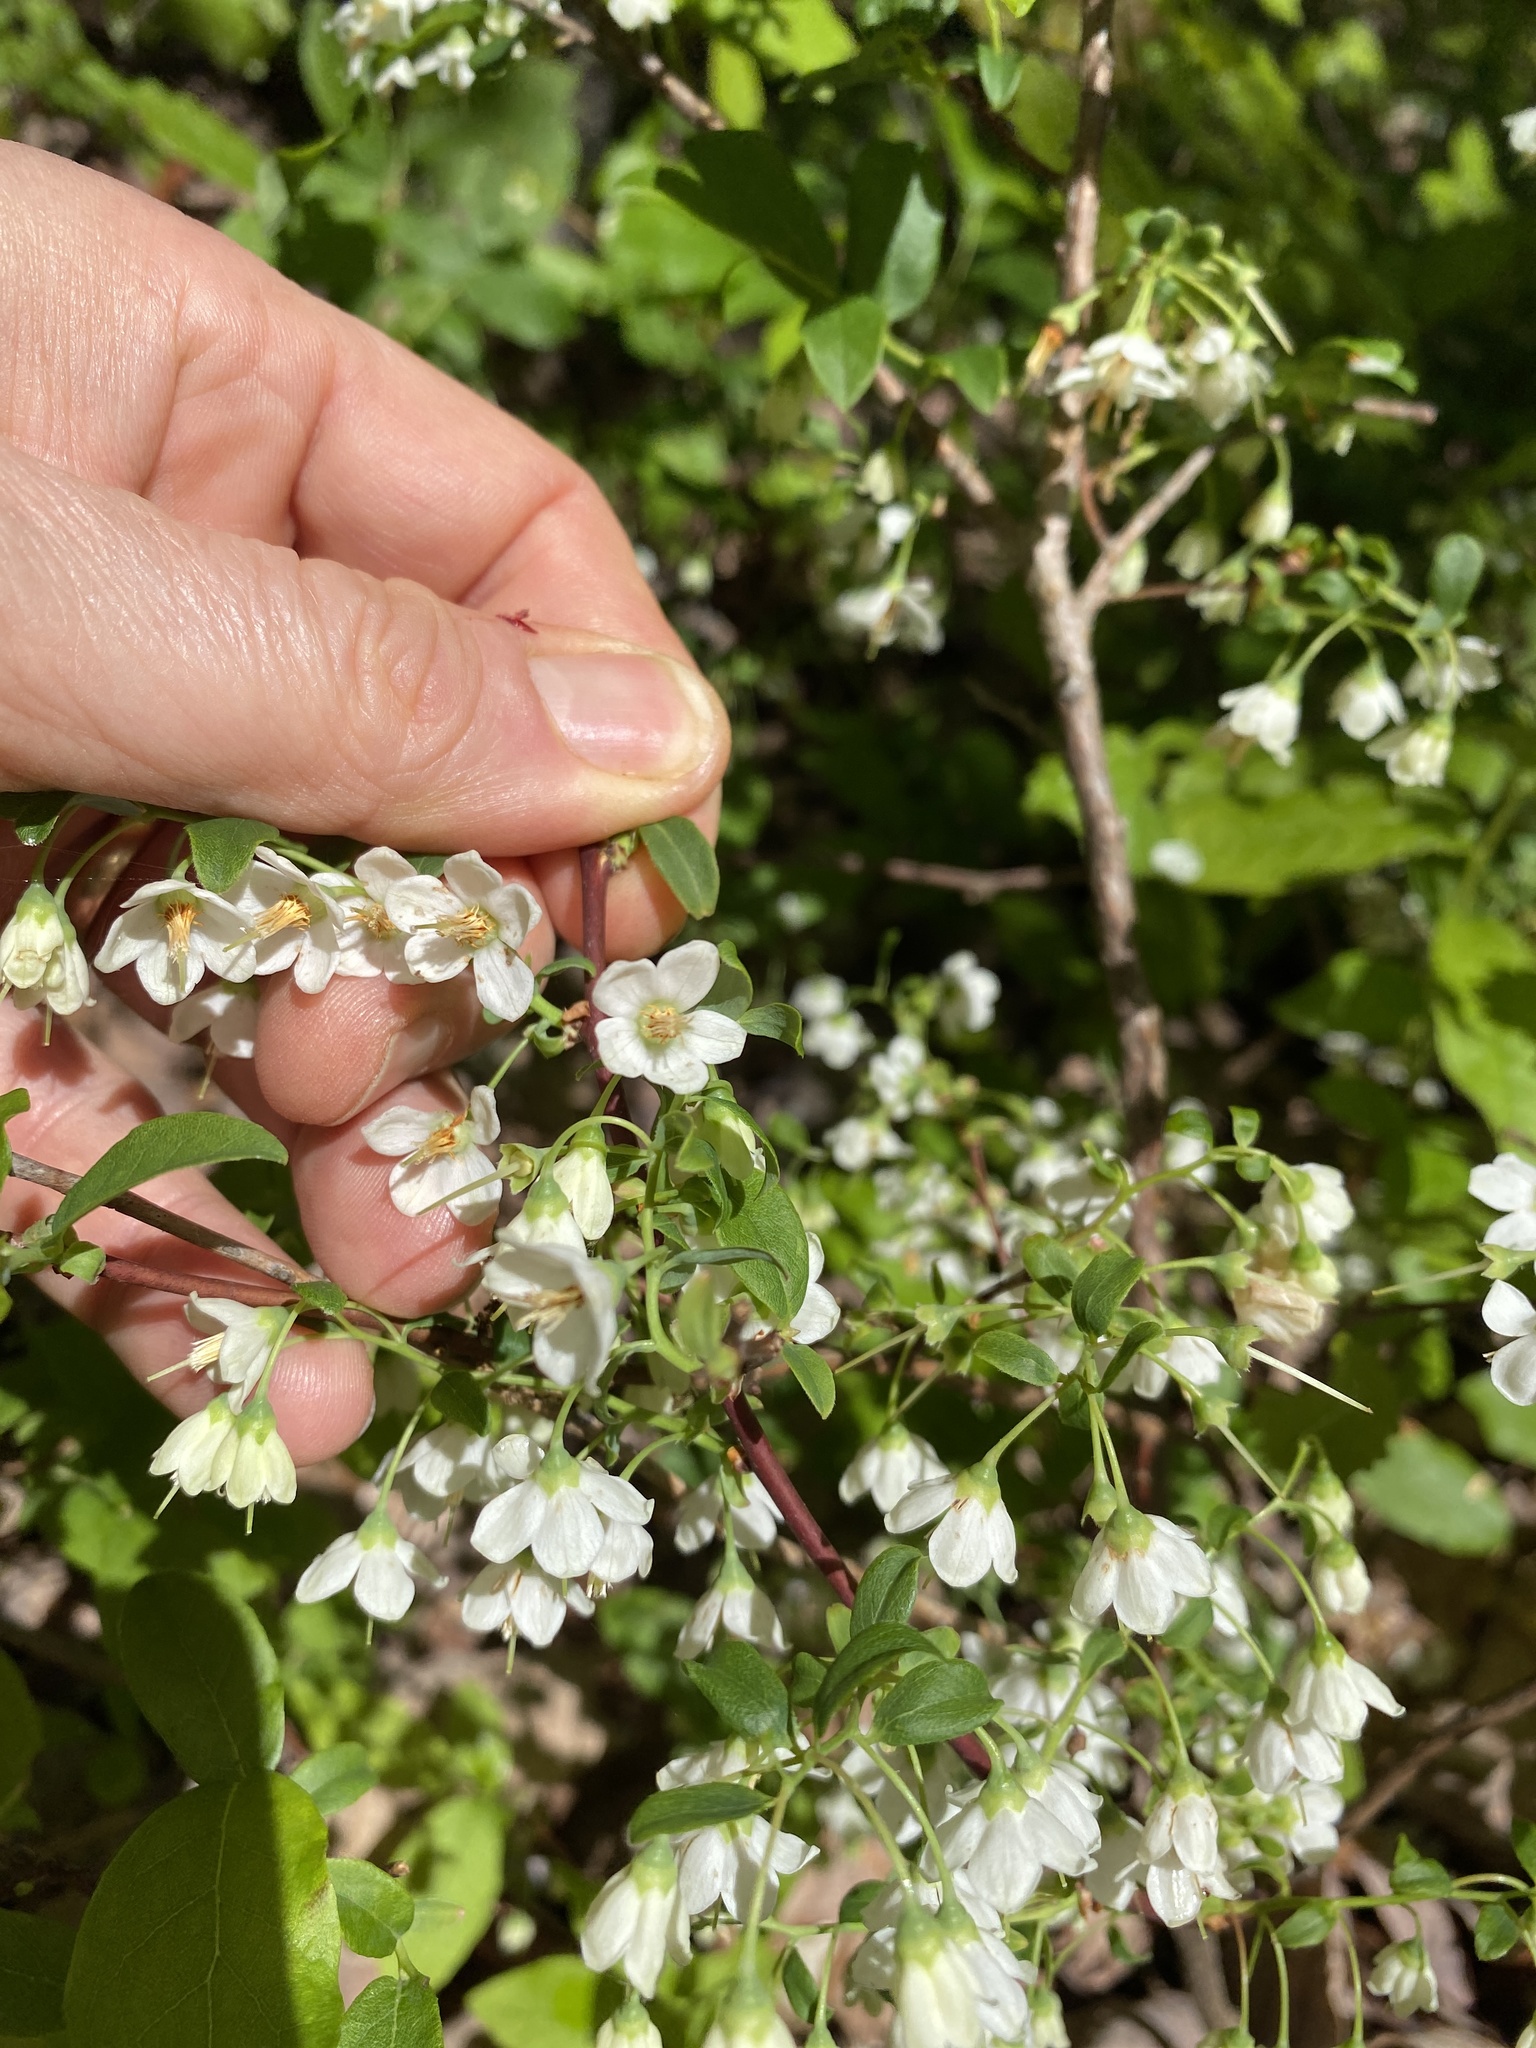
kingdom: Plantae
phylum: Tracheophyta
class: Magnoliopsida
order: Ericales
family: Ericaceae
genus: Vaccinium
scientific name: Vaccinium stamineum
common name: Deerberry
